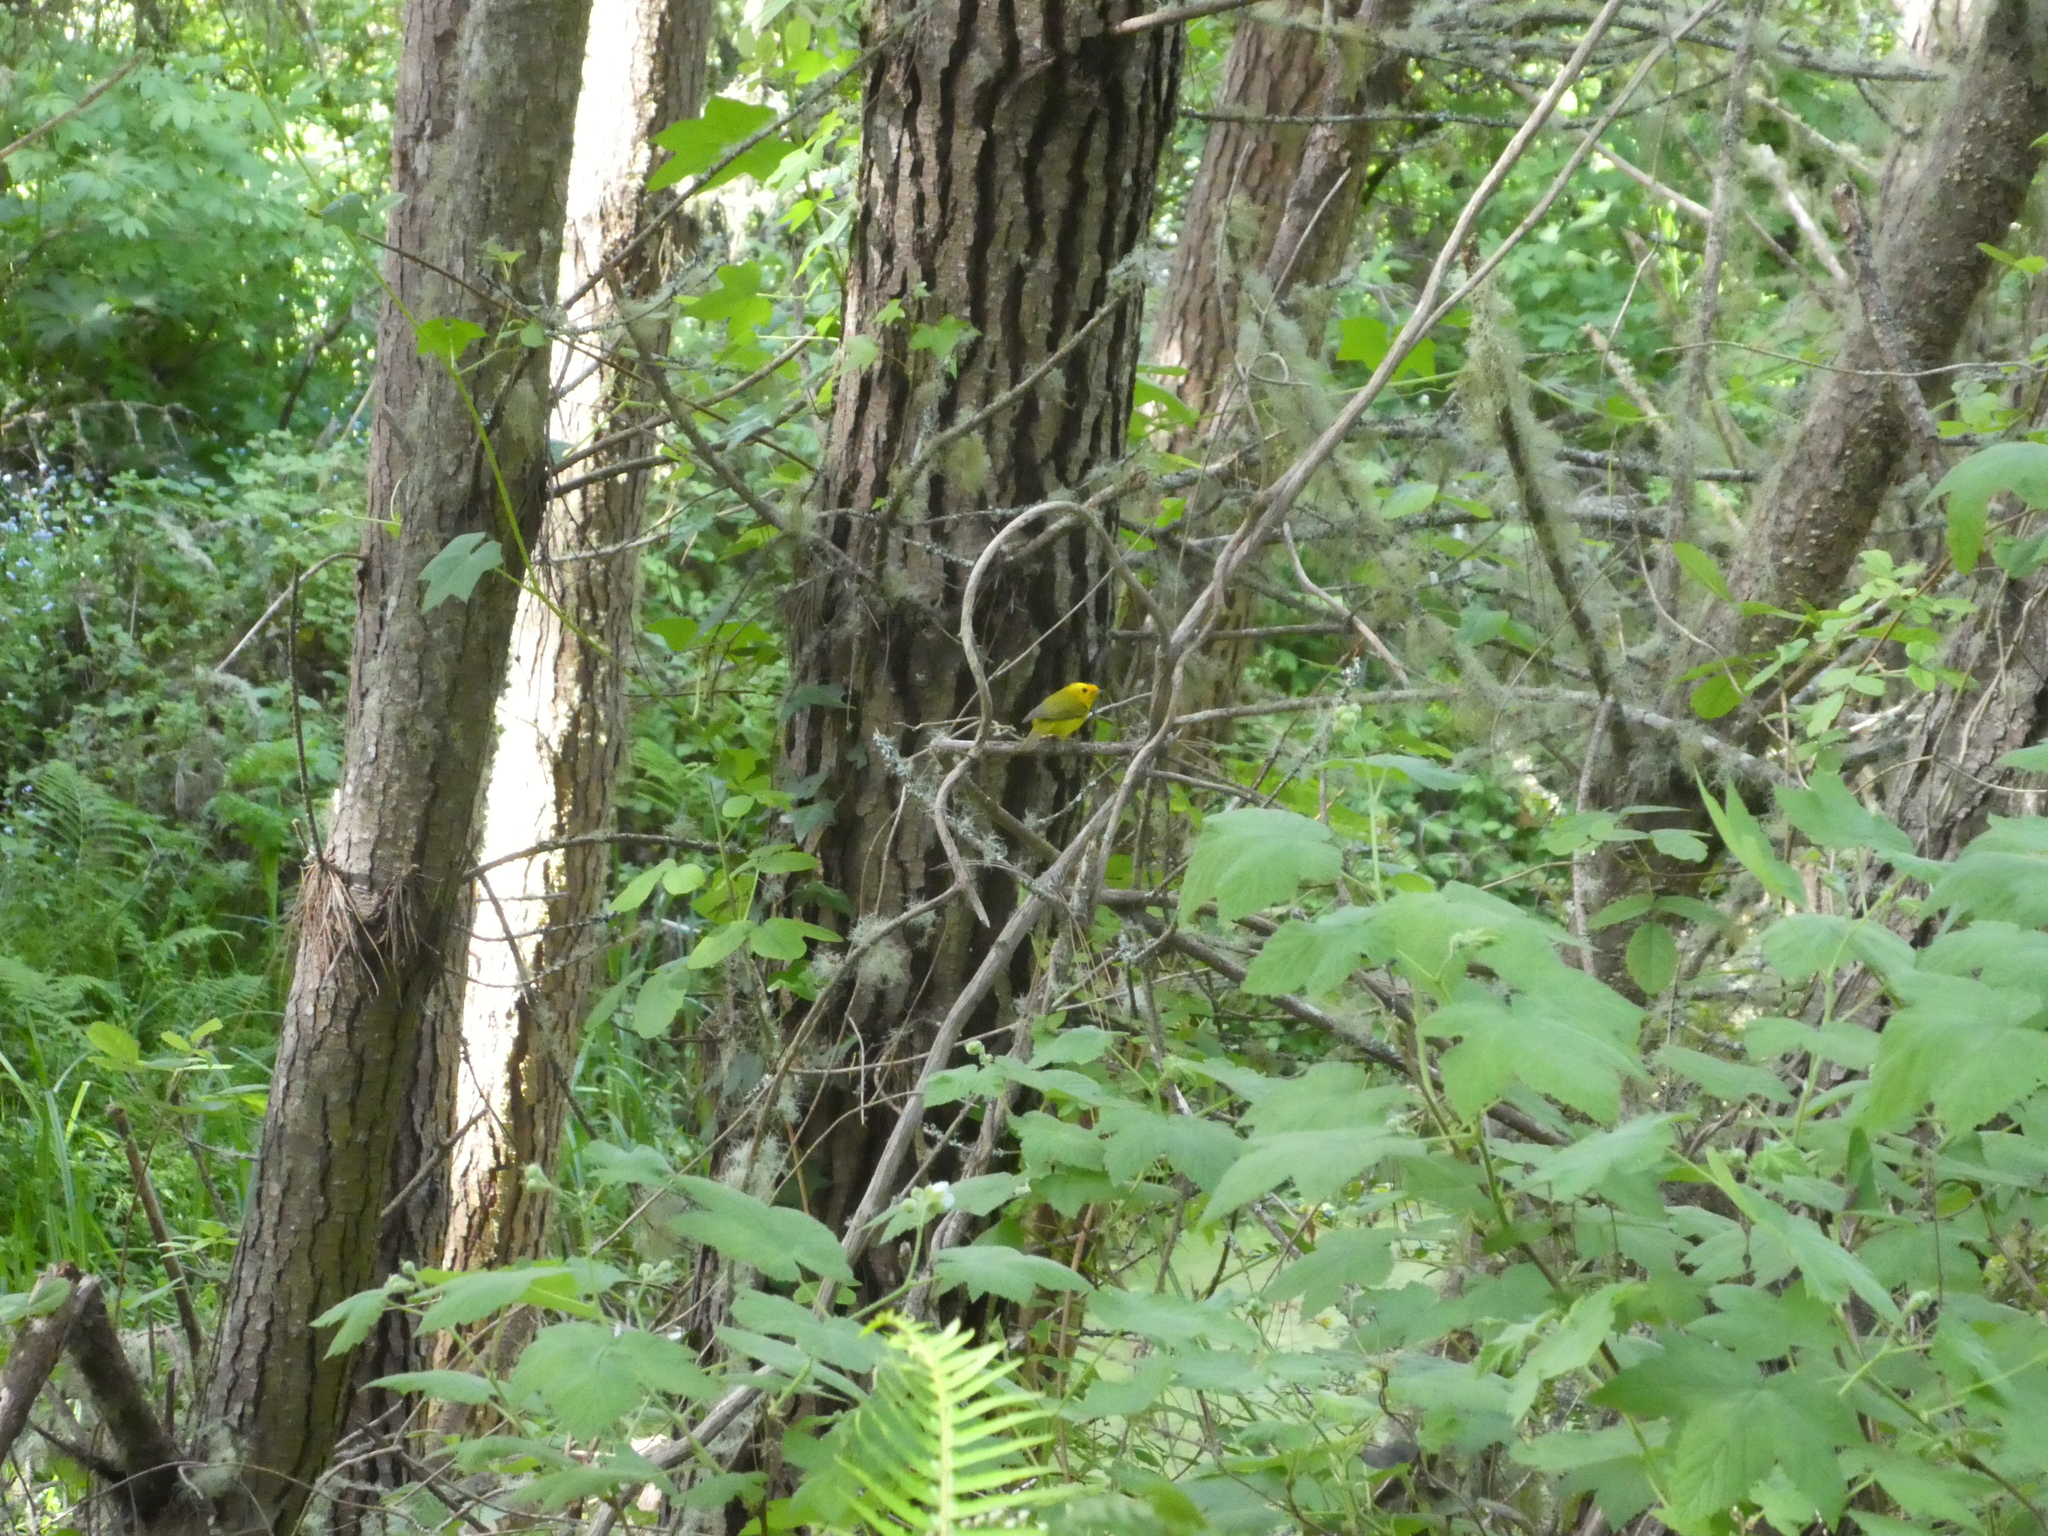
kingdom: Animalia
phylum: Chordata
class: Aves
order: Passeriformes
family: Parulidae
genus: Cardellina
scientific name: Cardellina pusilla
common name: Wilson's warbler
